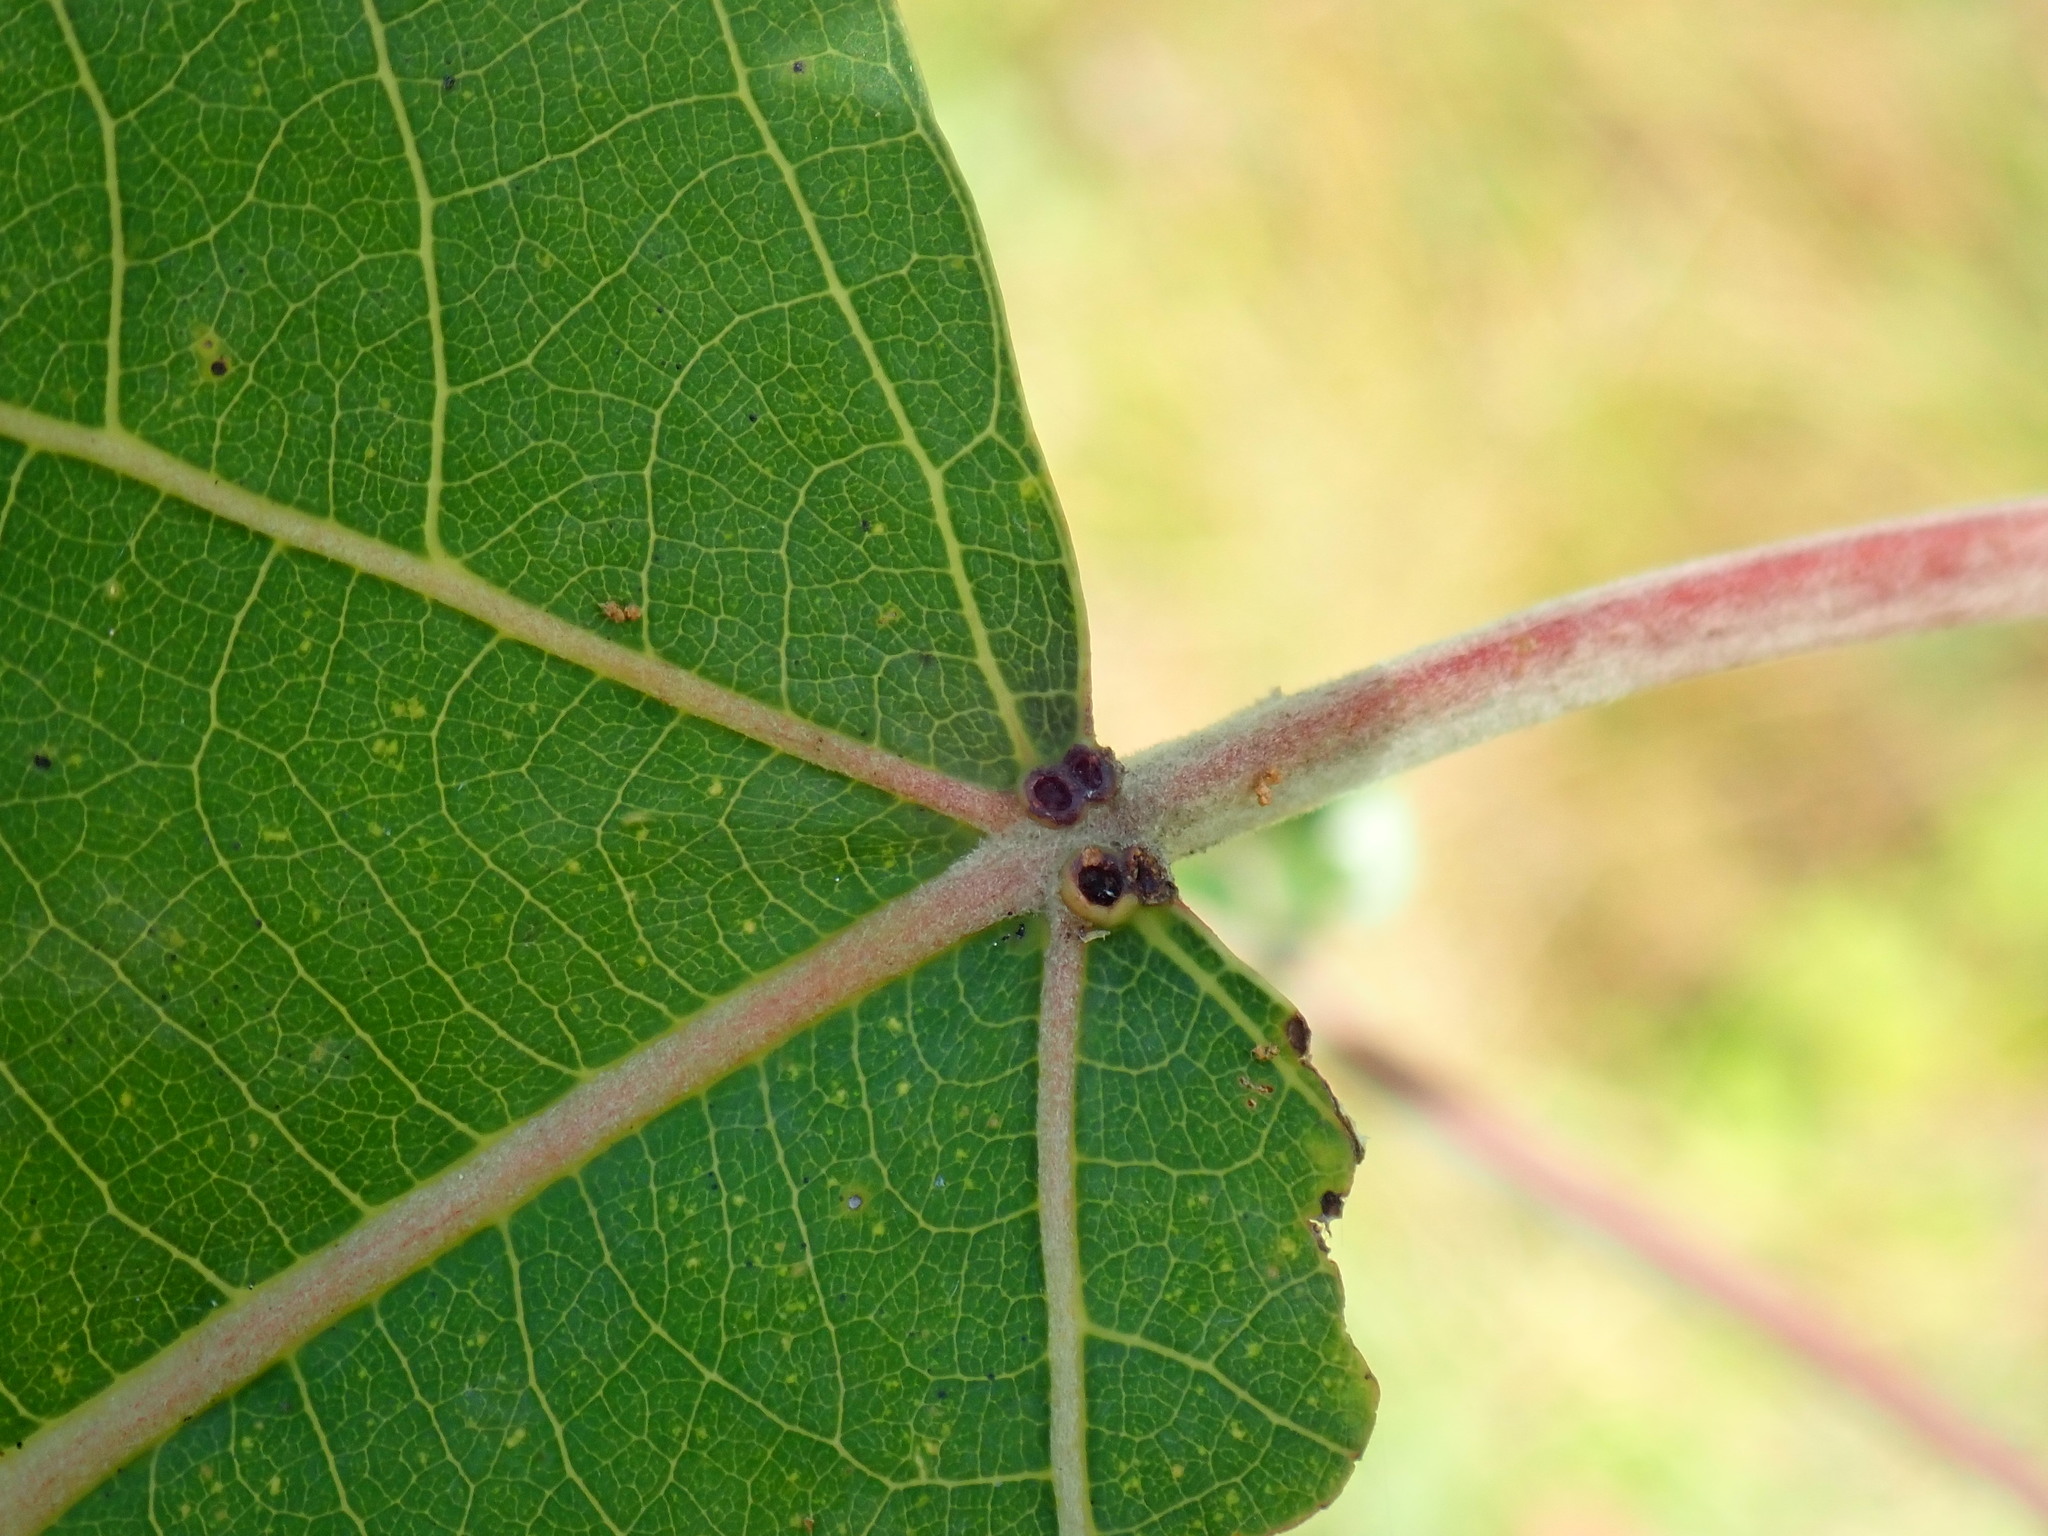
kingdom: Plantae
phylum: Tracheophyta
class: Magnoliopsida
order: Malpighiales
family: Salicaceae
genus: Populus
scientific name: Populus deltoides
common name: Eastern cottonwood
